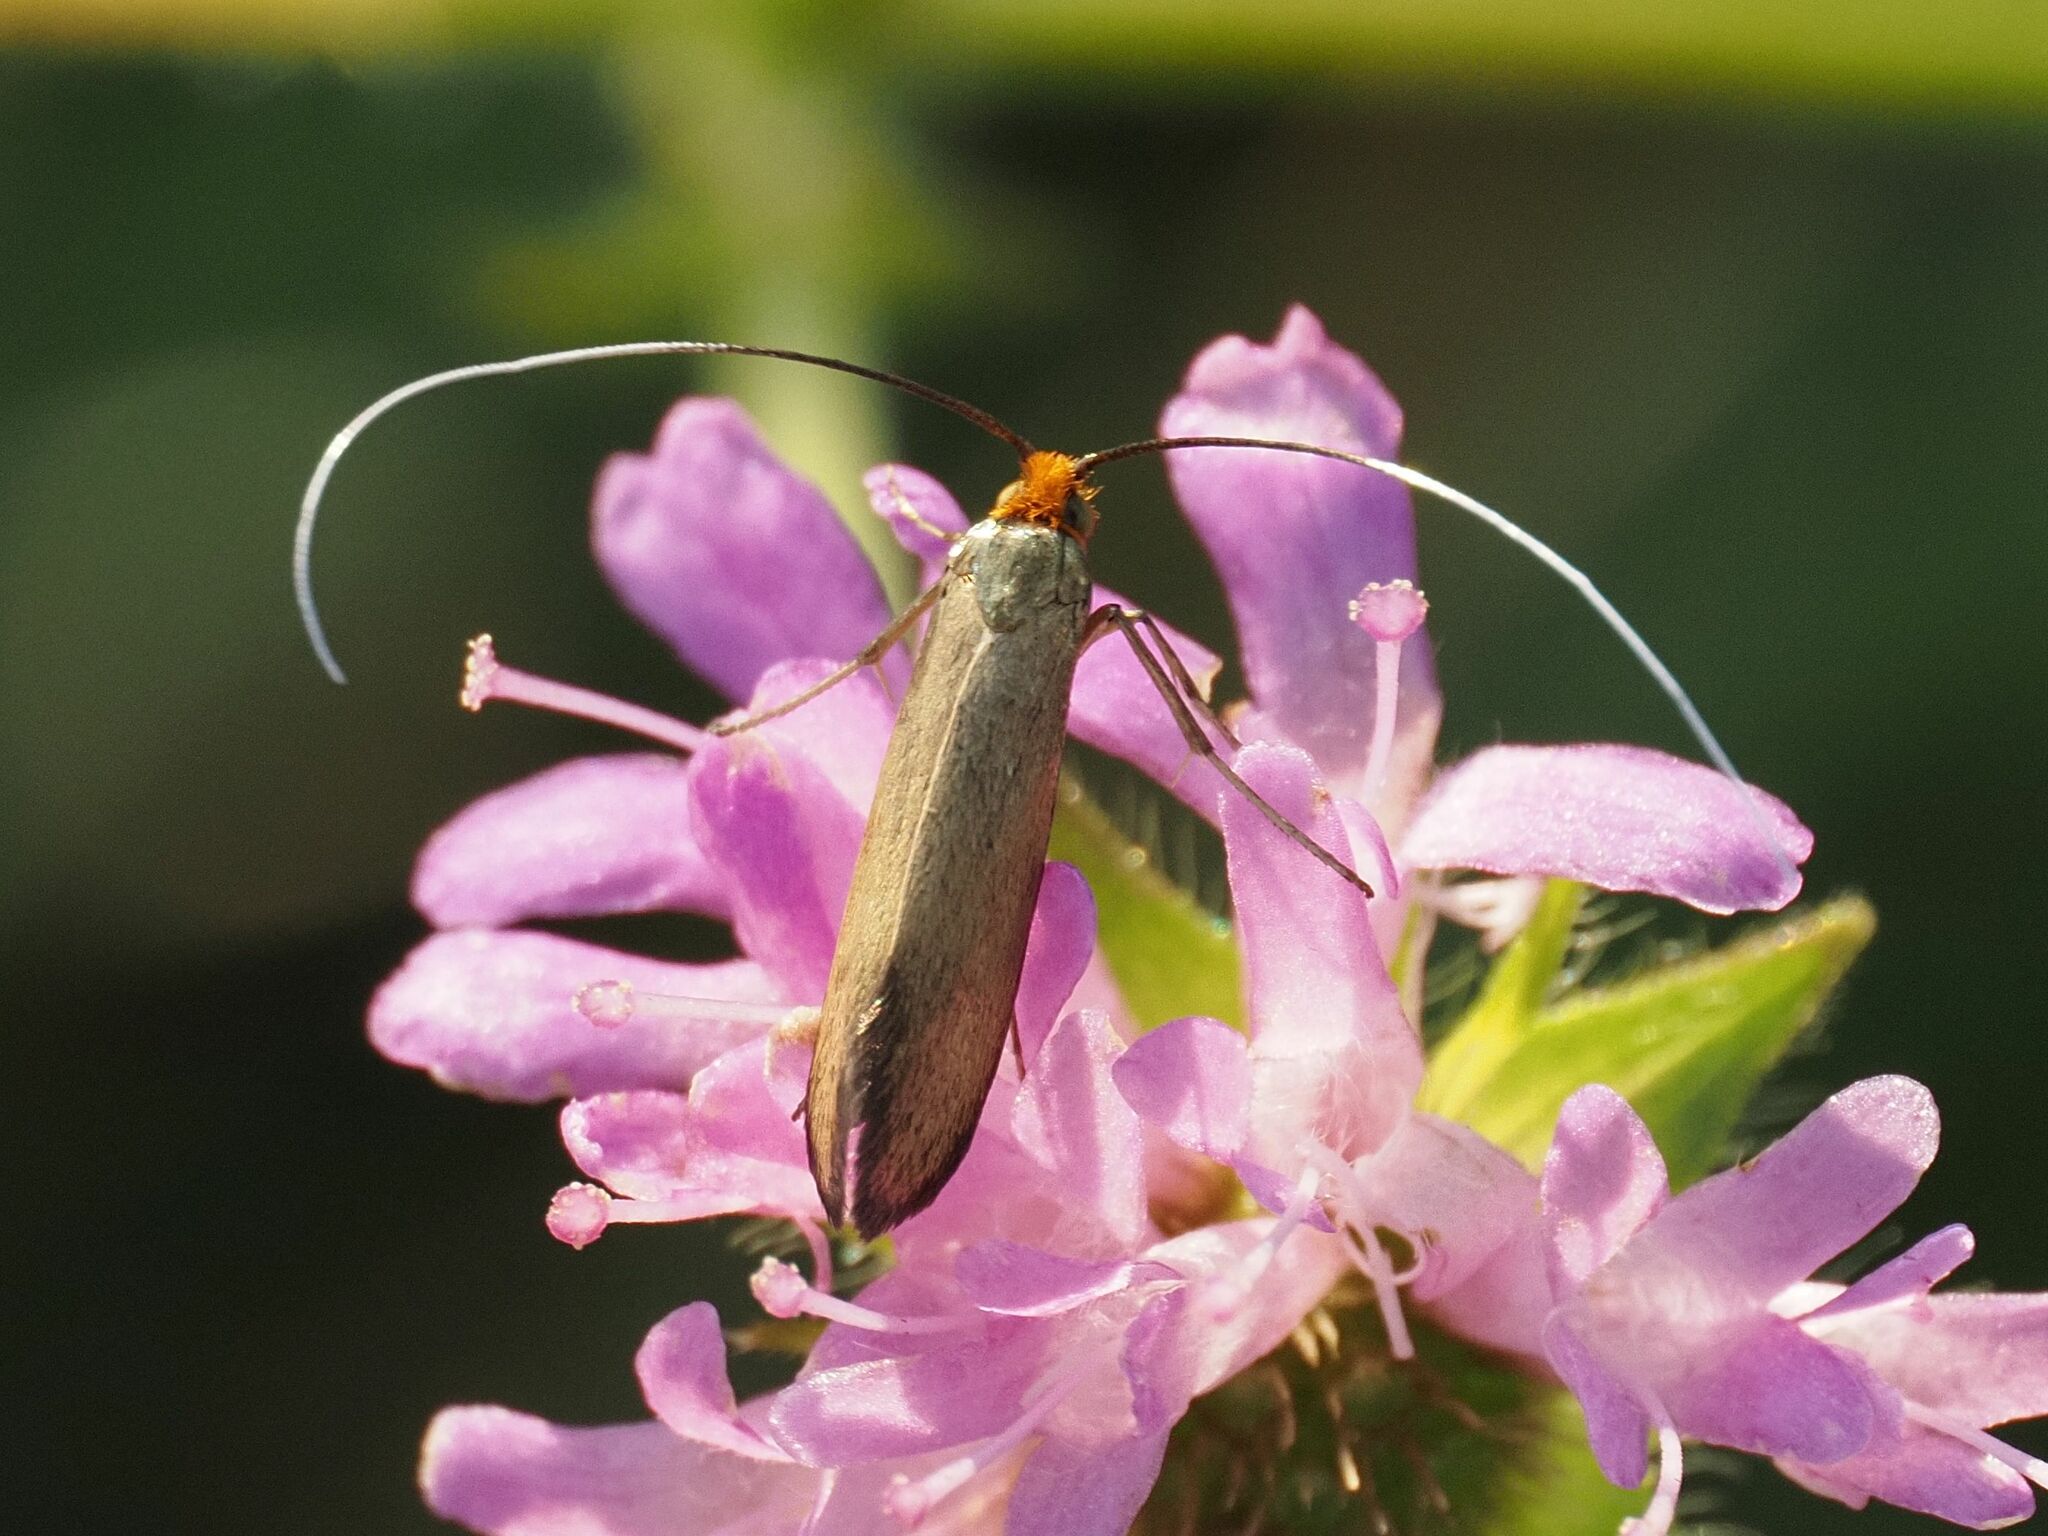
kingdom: Animalia
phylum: Arthropoda
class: Insecta
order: Lepidoptera
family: Adelidae
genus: Nemophora
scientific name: Nemophora metallica
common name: Brassy long-horn
